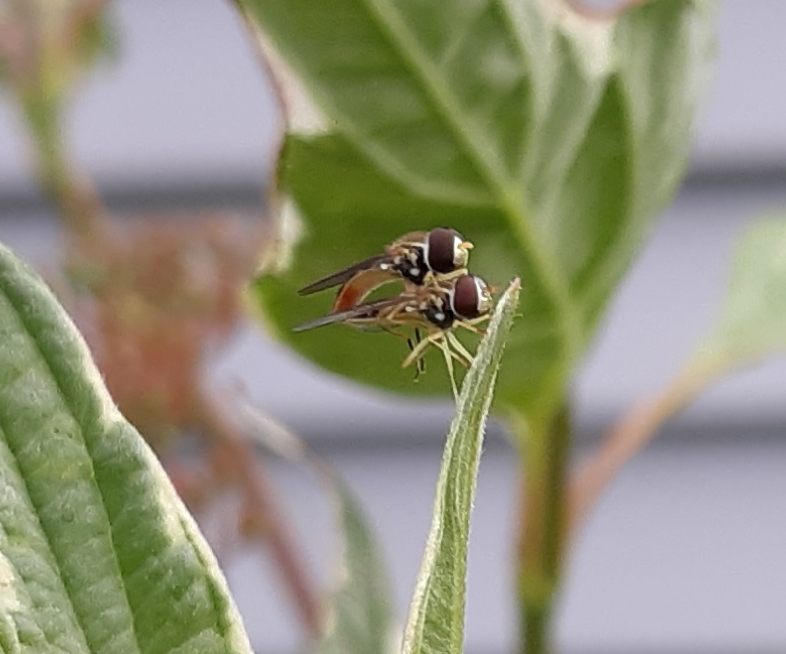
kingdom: Animalia
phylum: Arthropoda
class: Insecta
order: Diptera
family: Syrphidae
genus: Toxomerus
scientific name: Toxomerus
